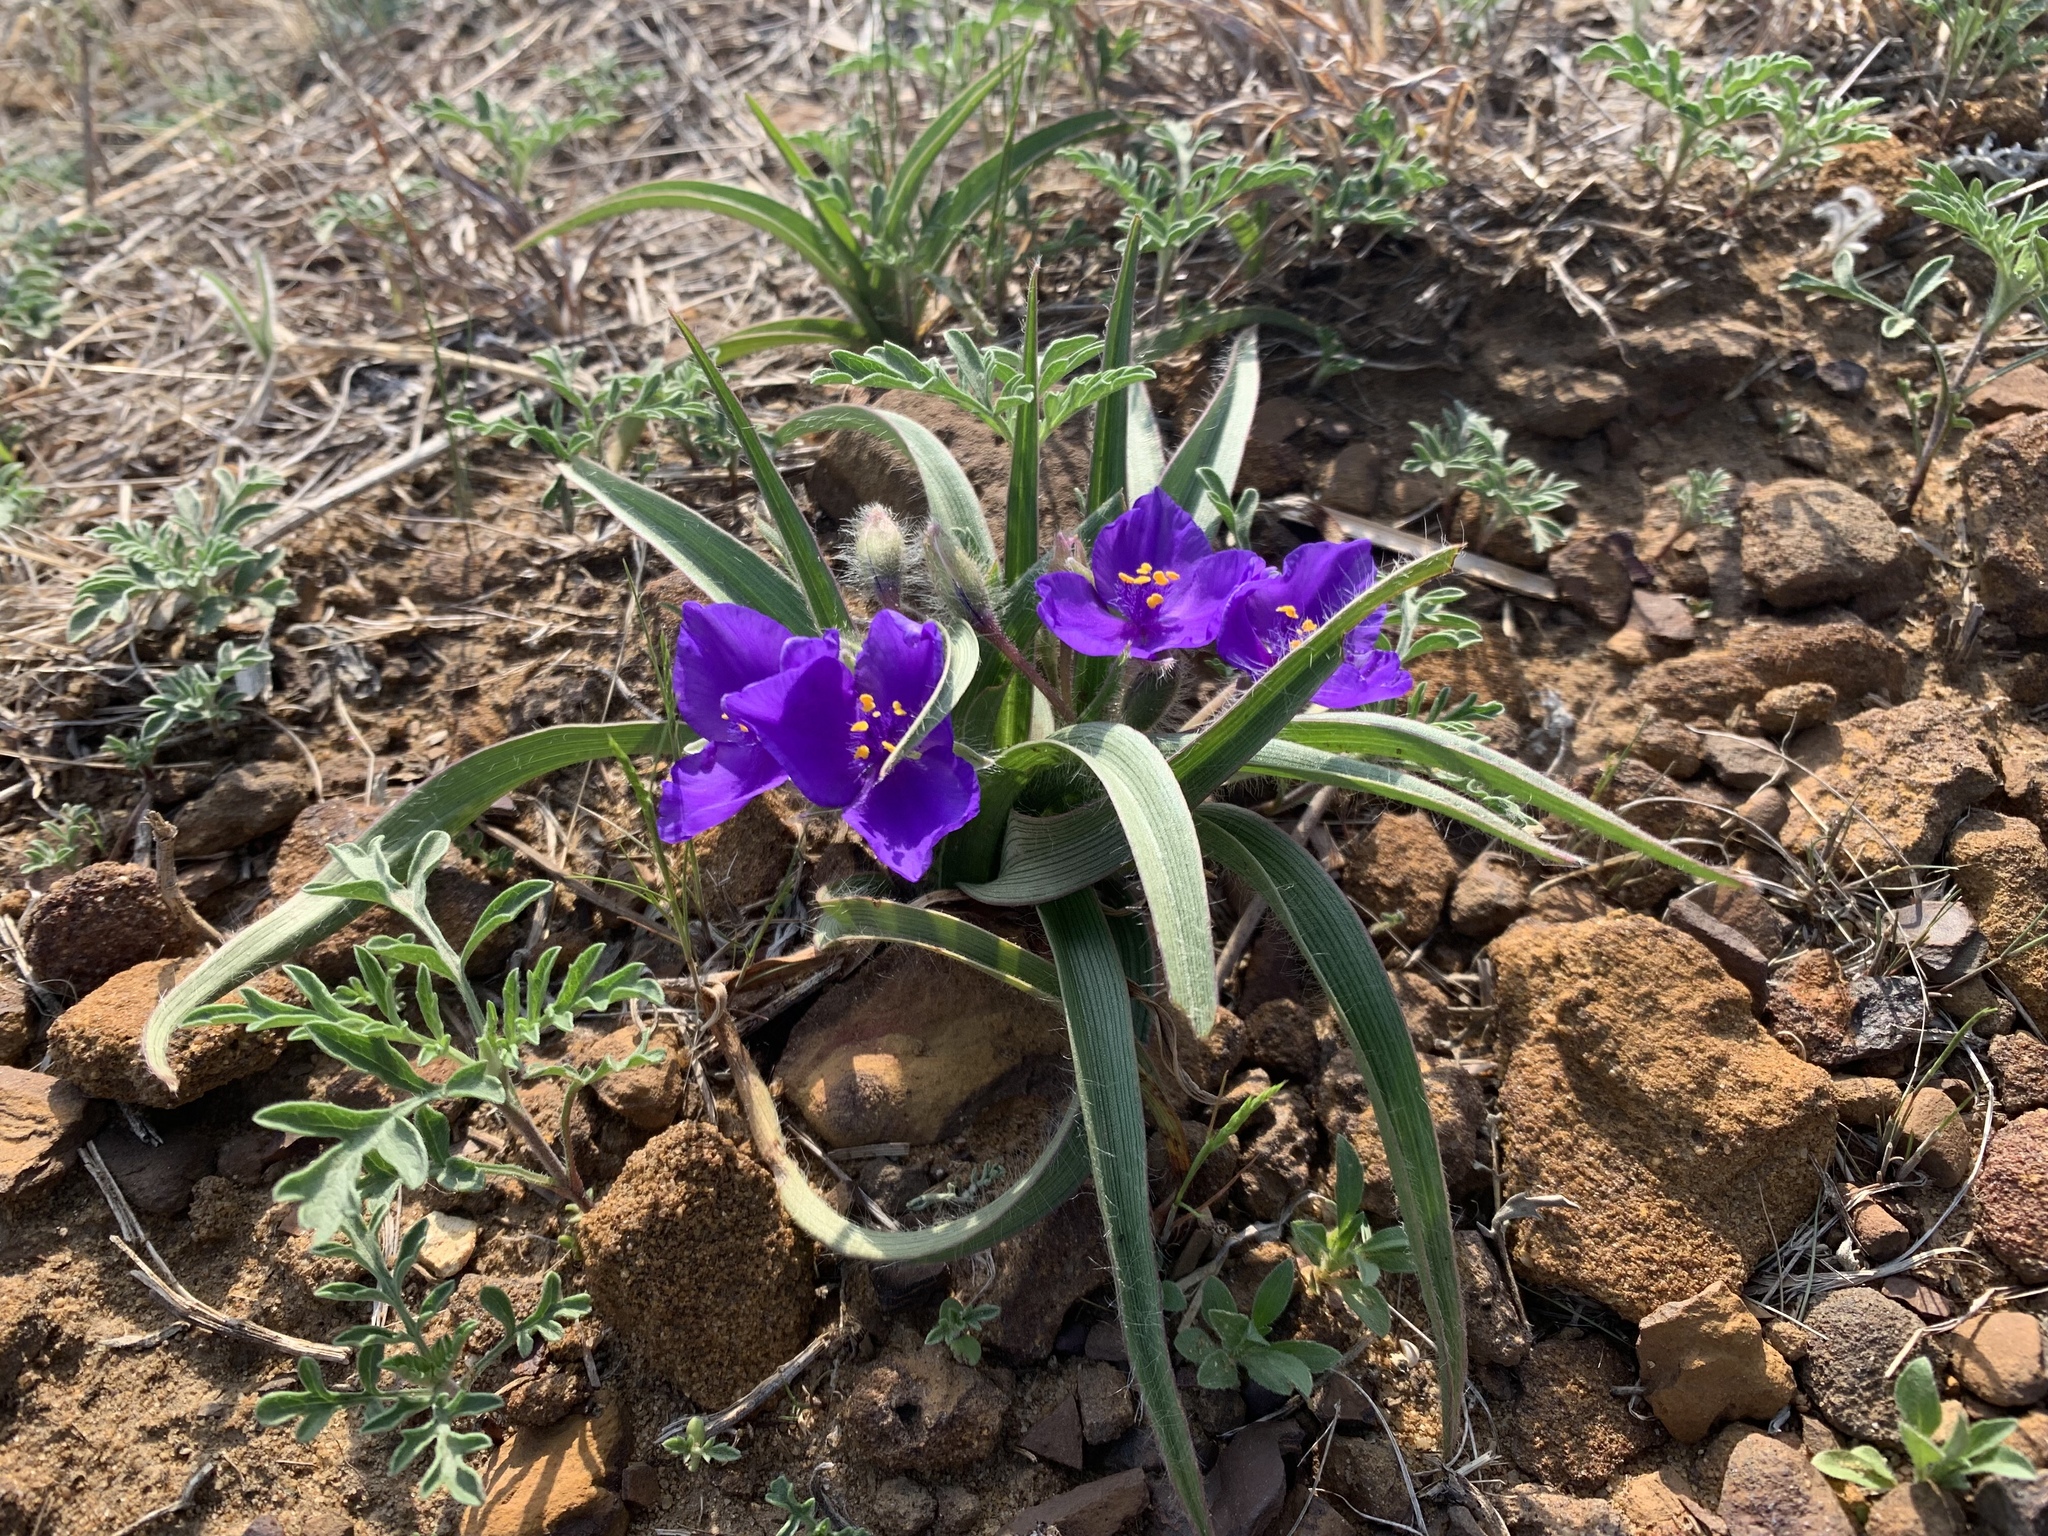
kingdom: Plantae
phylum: Tracheophyta
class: Liliopsida
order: Commelinales
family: Commelinaceae
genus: Tradescantia
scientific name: Tradescantia tharpii
